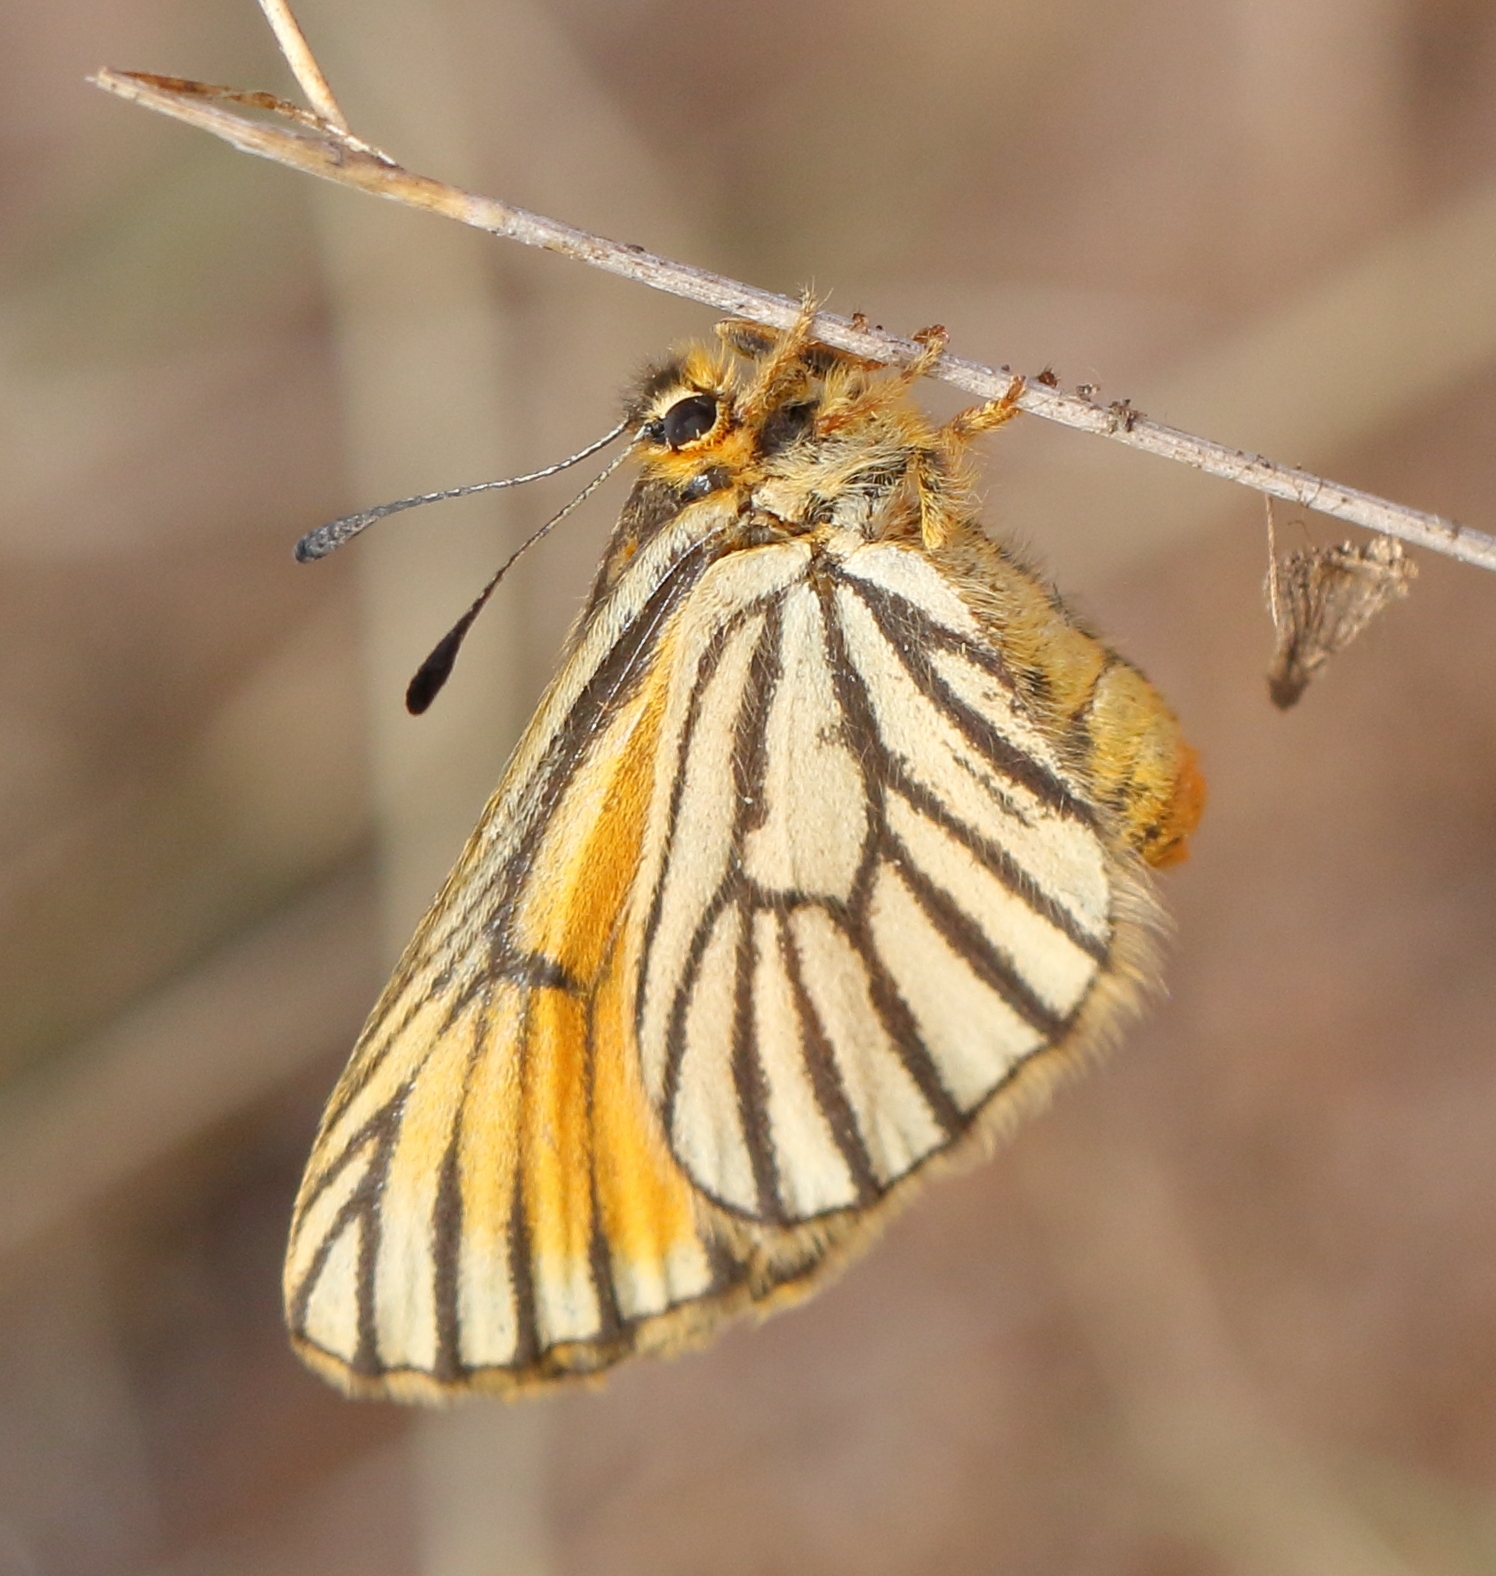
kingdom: Animalia
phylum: Arthropoda
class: Insecta
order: Lepidoptera
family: Lycaenidae
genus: Alaena
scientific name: Alaena amazoula
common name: Yellow zulu
